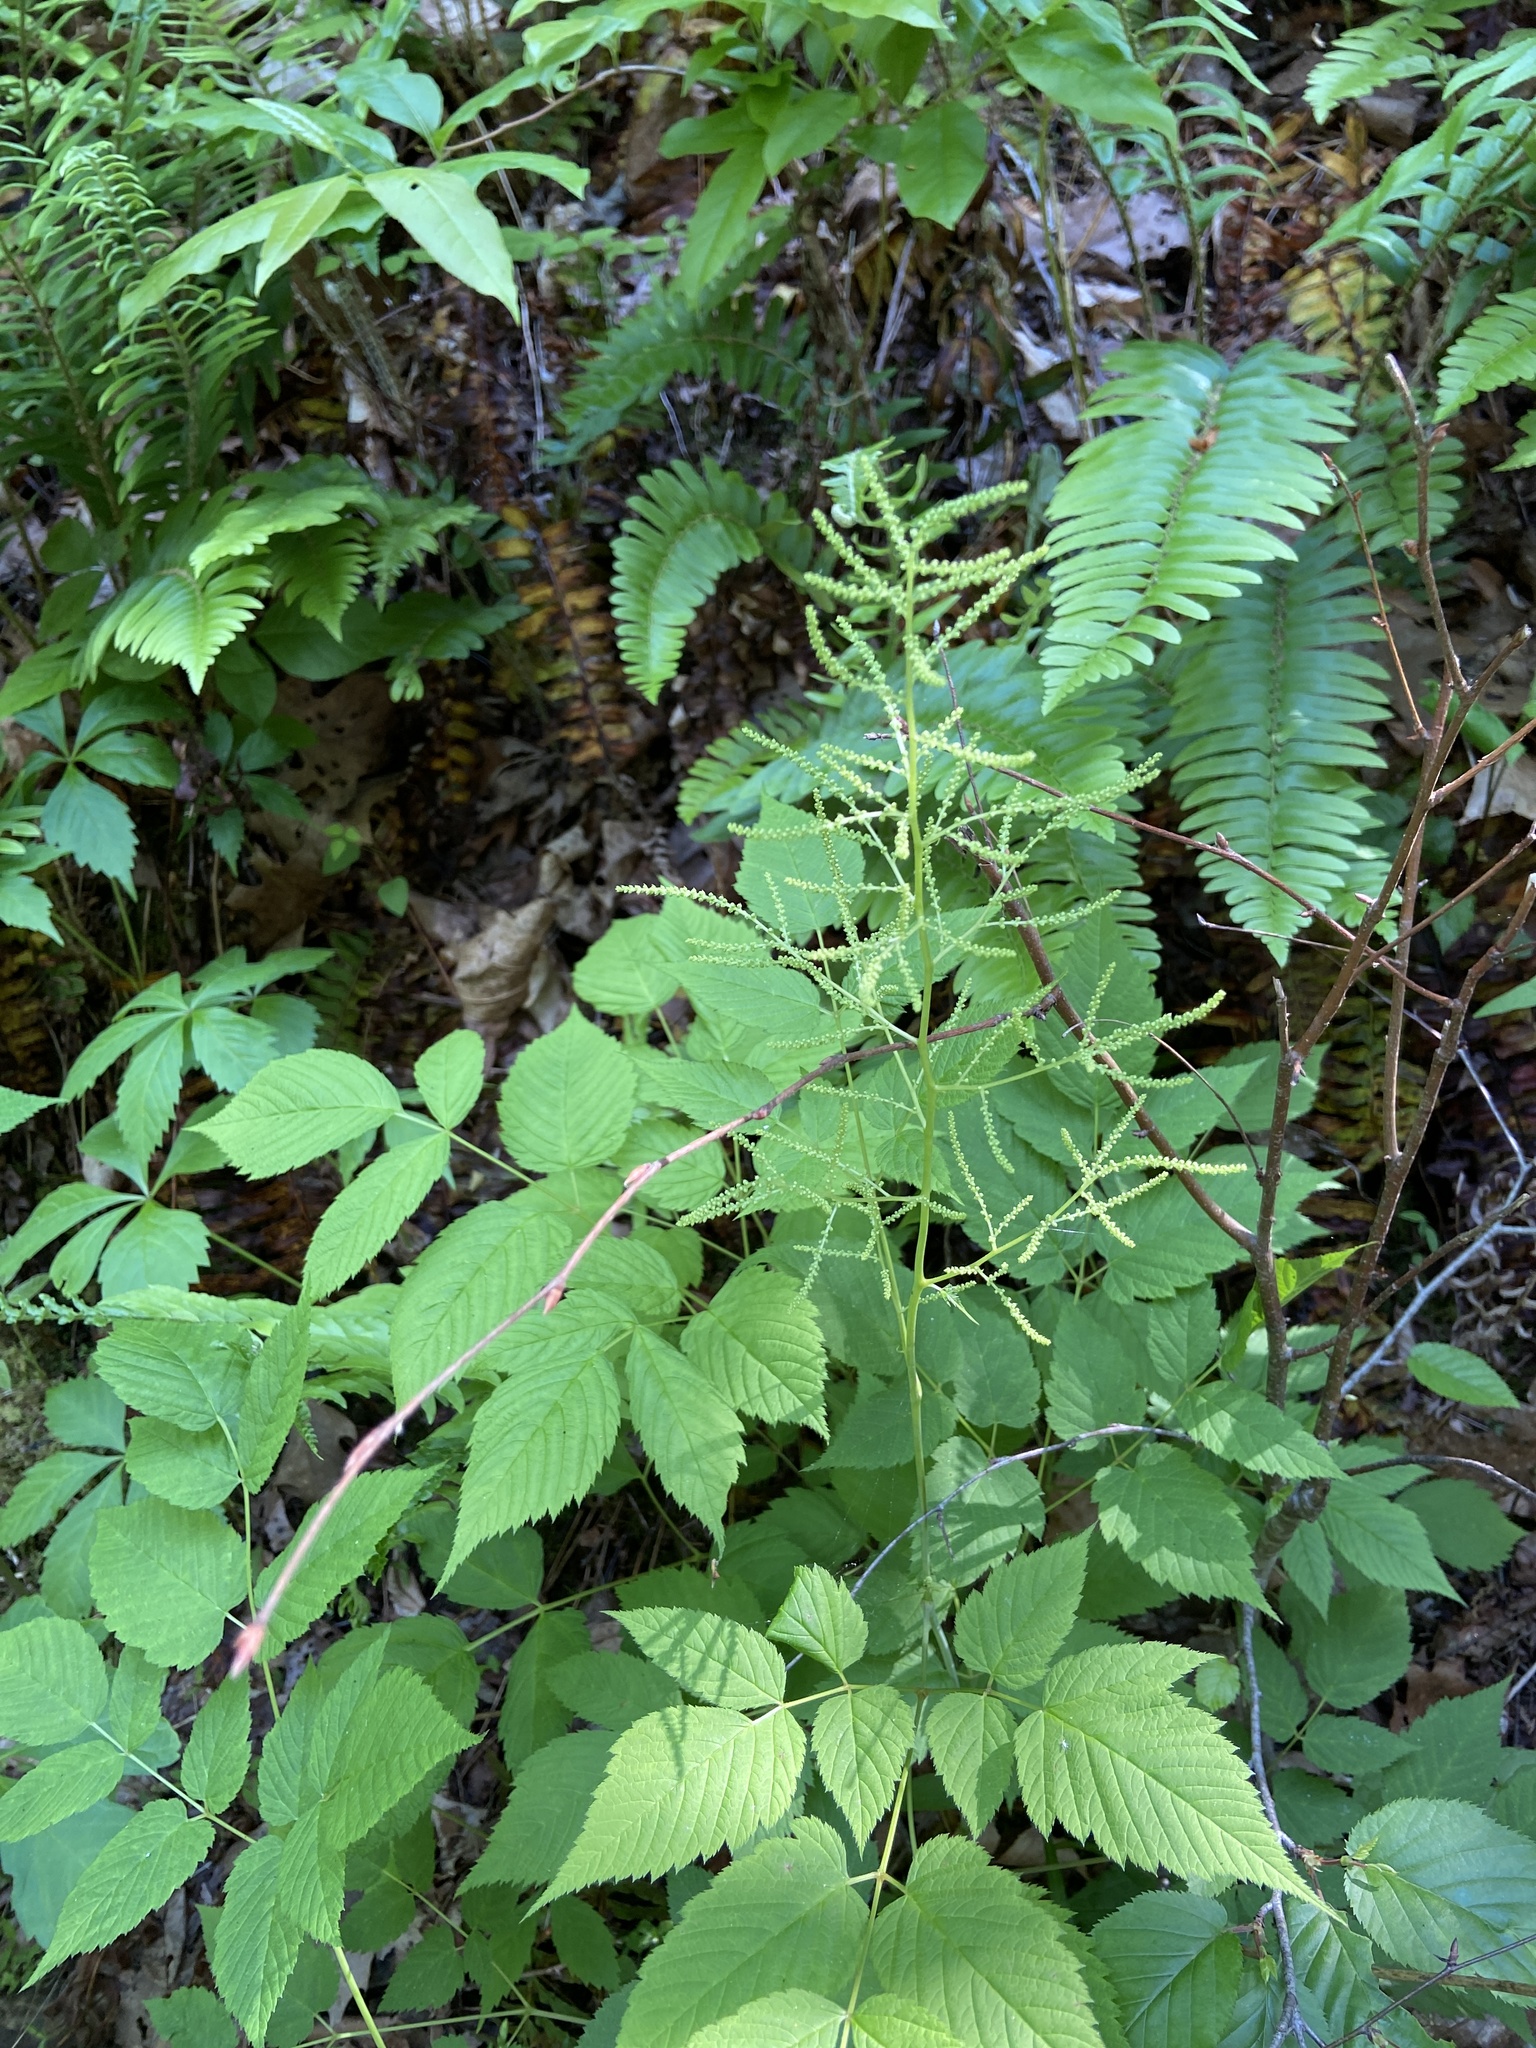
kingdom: Plantae
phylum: Tracheophyta
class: Magnoliopsida
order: Rosales
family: Rosaceae
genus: Aruncus
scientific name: Aruncus dioicus
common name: Buck's-beard
